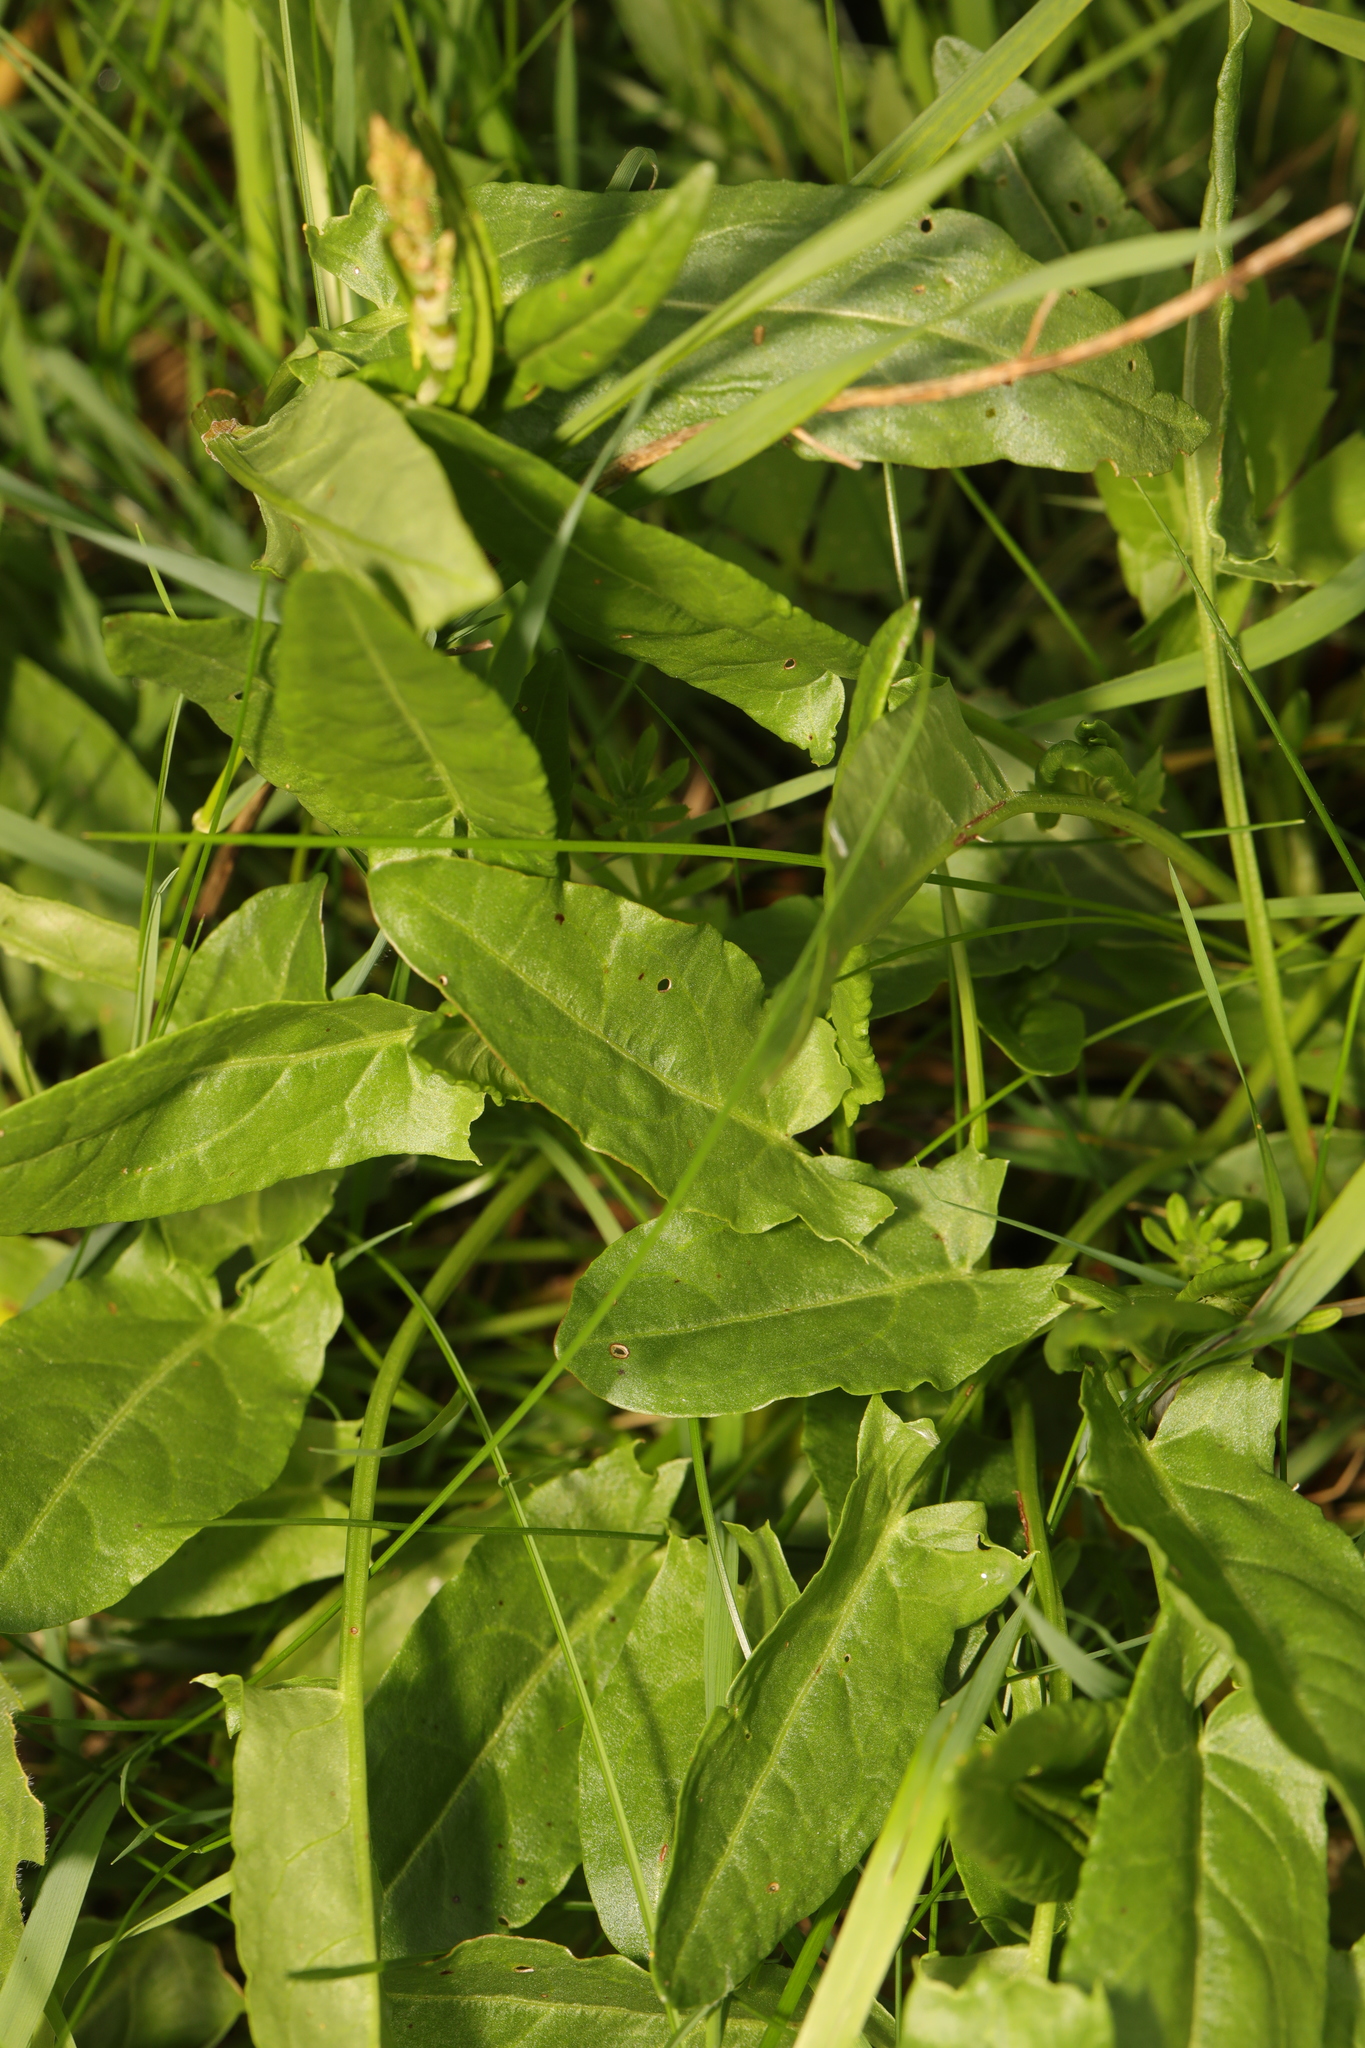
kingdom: Plantae
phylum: Tracheophyta
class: Magnoliopsida
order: Caryophyllales
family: Polygonaceae
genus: Rumex
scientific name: Rumex acetosa
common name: Garden sorrel
